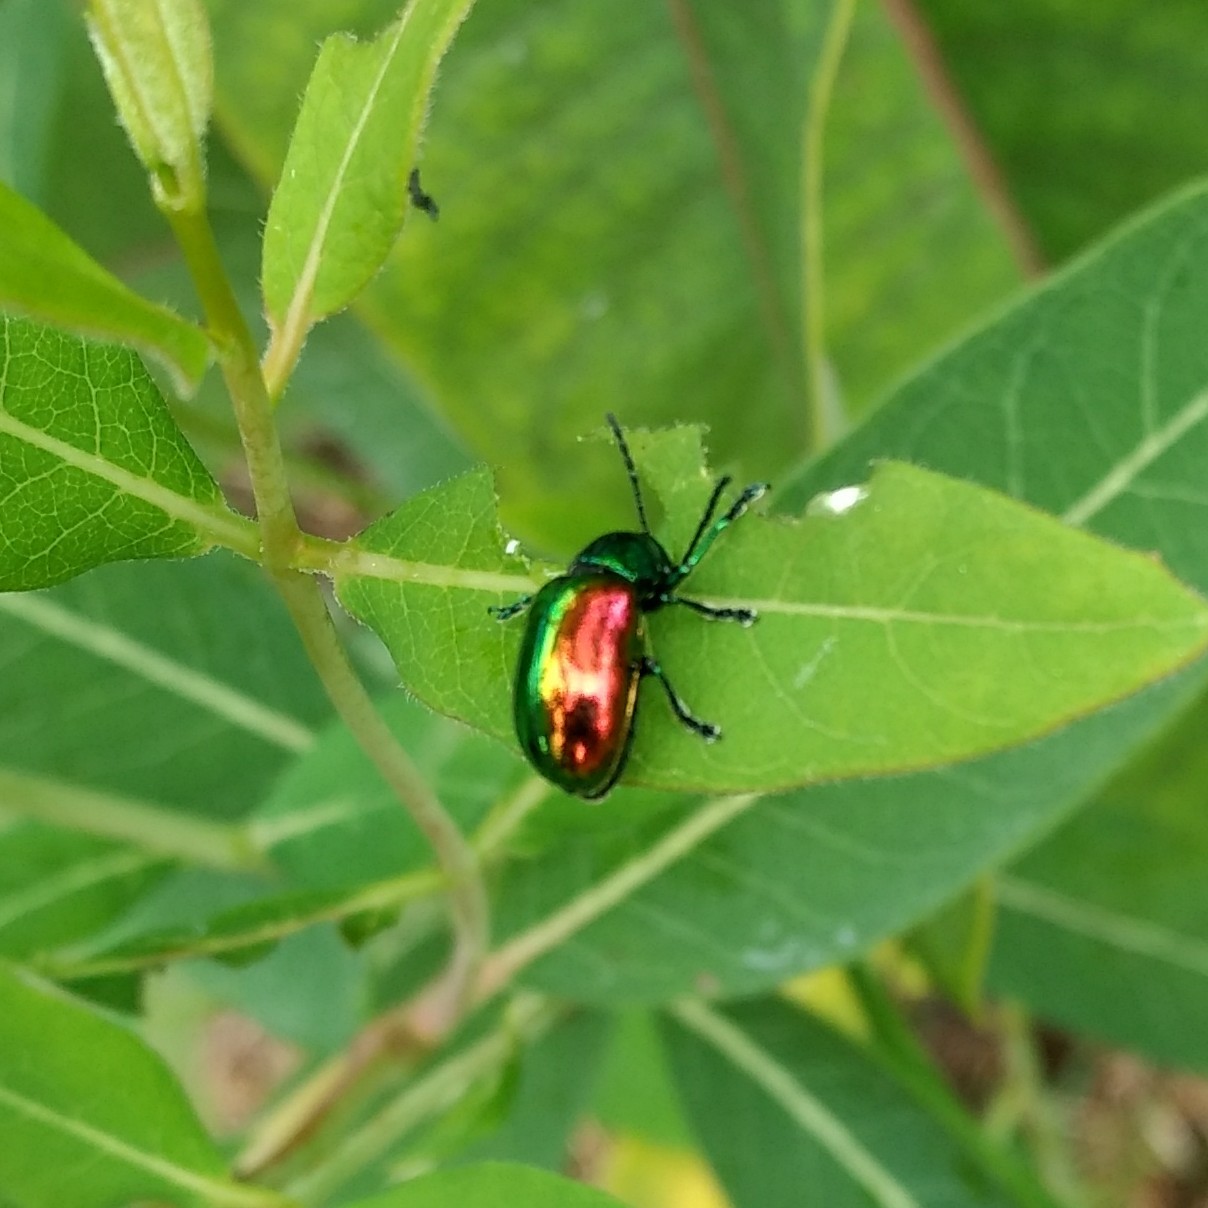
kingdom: Animalia
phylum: Arthropoda
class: Insecta
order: Coleoptera
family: Chrysomelidae
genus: Chrysochus
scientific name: Chrysochus auratus
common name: Dogbane leaf beetle
